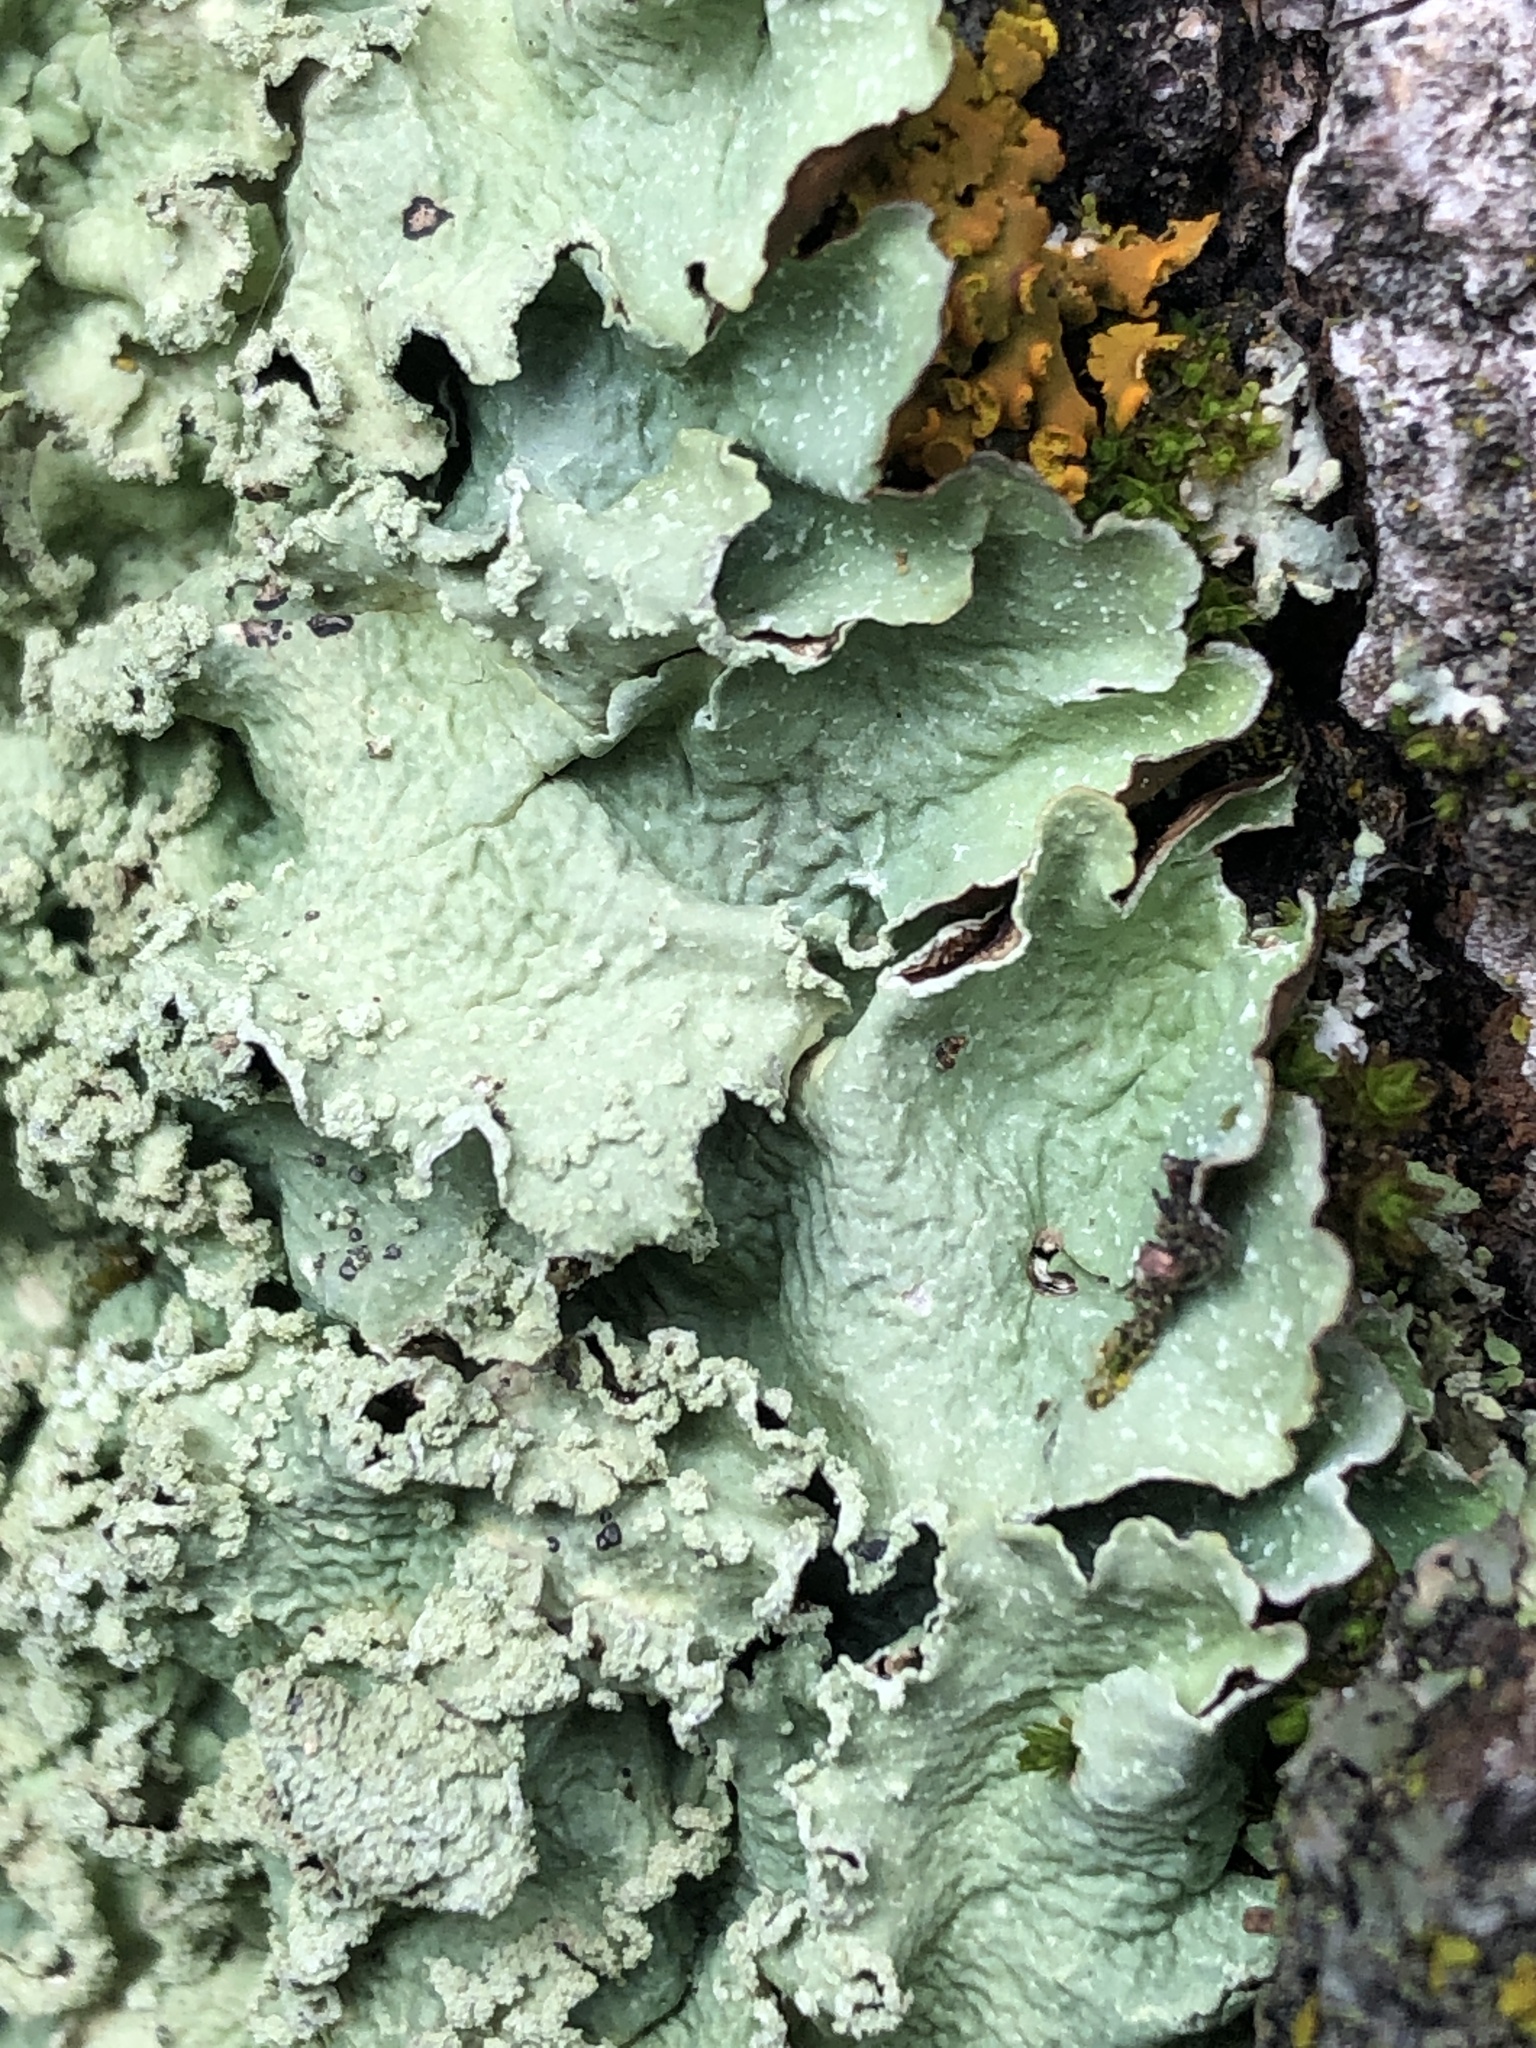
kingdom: Fungi
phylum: Ascomycota
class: Lecanoromycetes
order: Lecanorales
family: Parmeliaceae
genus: Punctelia
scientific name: Punctelia caseana
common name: Moondust speckled lichen
